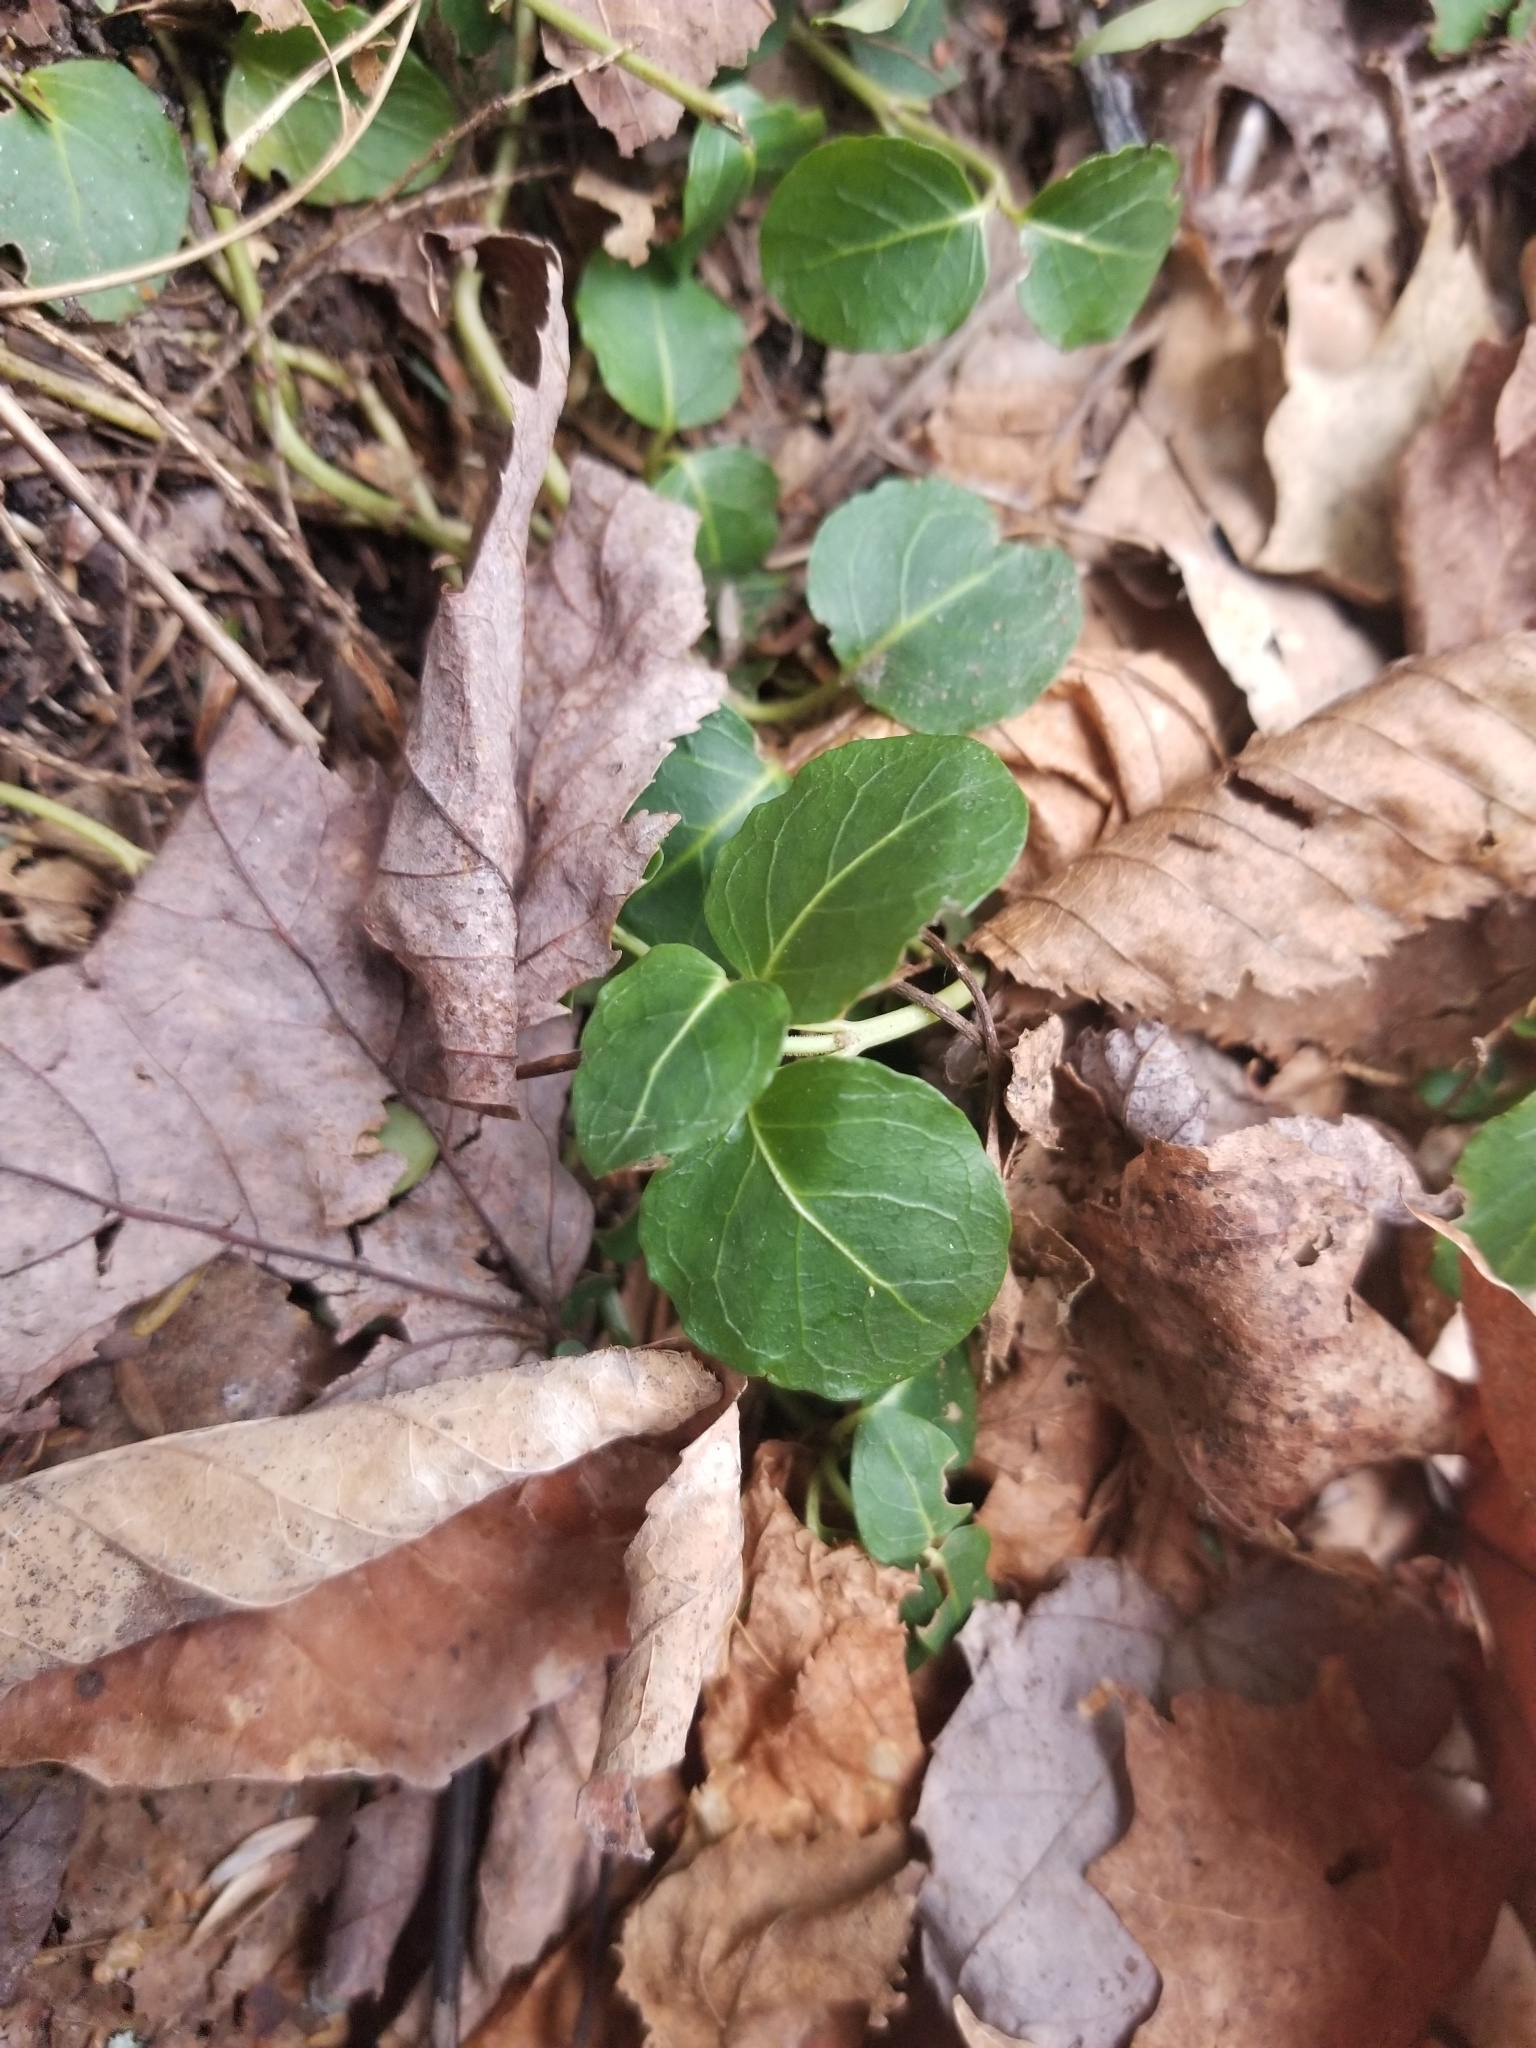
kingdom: Plantae
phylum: Tracheophyta
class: Magnoliopsida
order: Gentianales
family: Rubiaceae
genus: Mitchella
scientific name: Mitchella repens
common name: Partridge-berry
